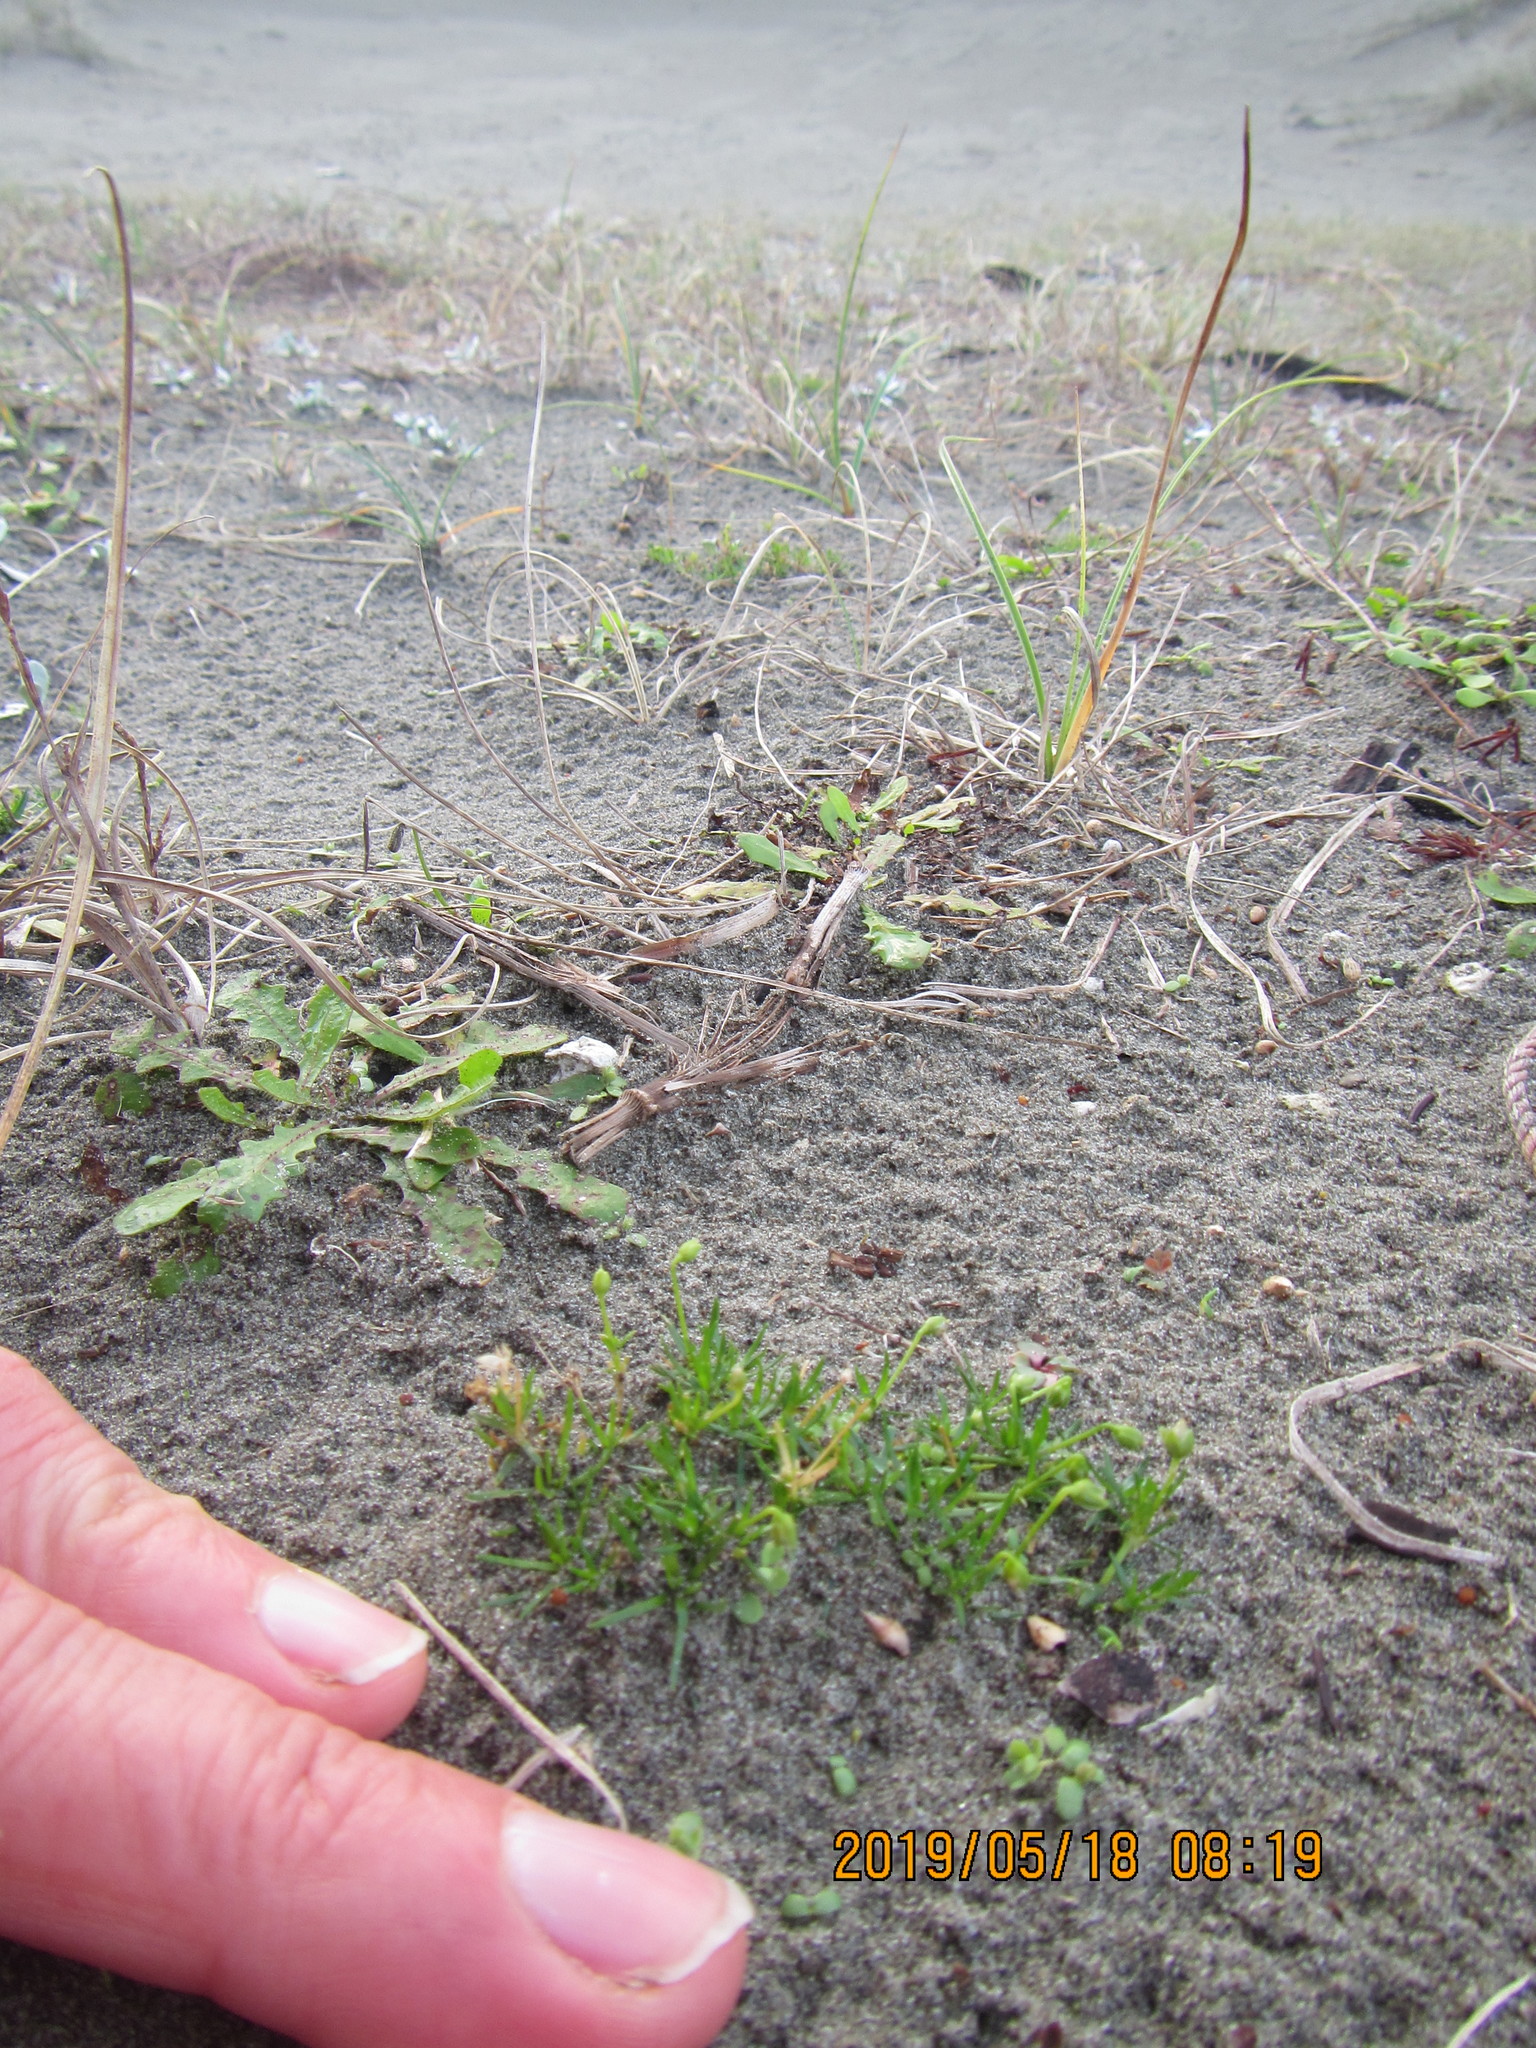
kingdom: Plantae
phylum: Tracheophyta
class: Magnoliopsida
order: Caryophyllales
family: Caryophyllaceae
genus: Sagina
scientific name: Sagina procumbens
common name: Procumbent pearlwort
